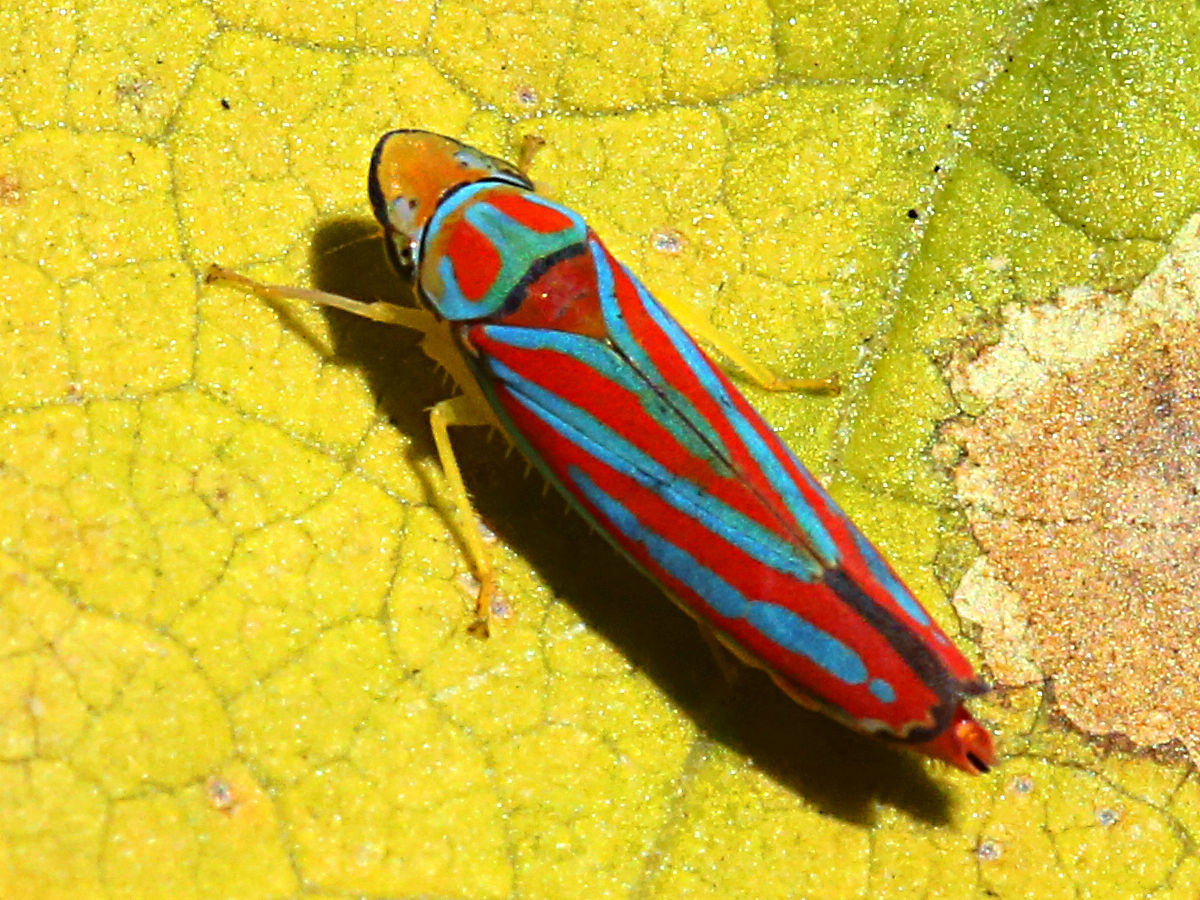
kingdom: Animalia
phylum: Arthropoda
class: Insecta
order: Hemiptera
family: Cicadellidae
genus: Graphocephala
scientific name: Graphocephala coccinea
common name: Candy-striped leafhopper
